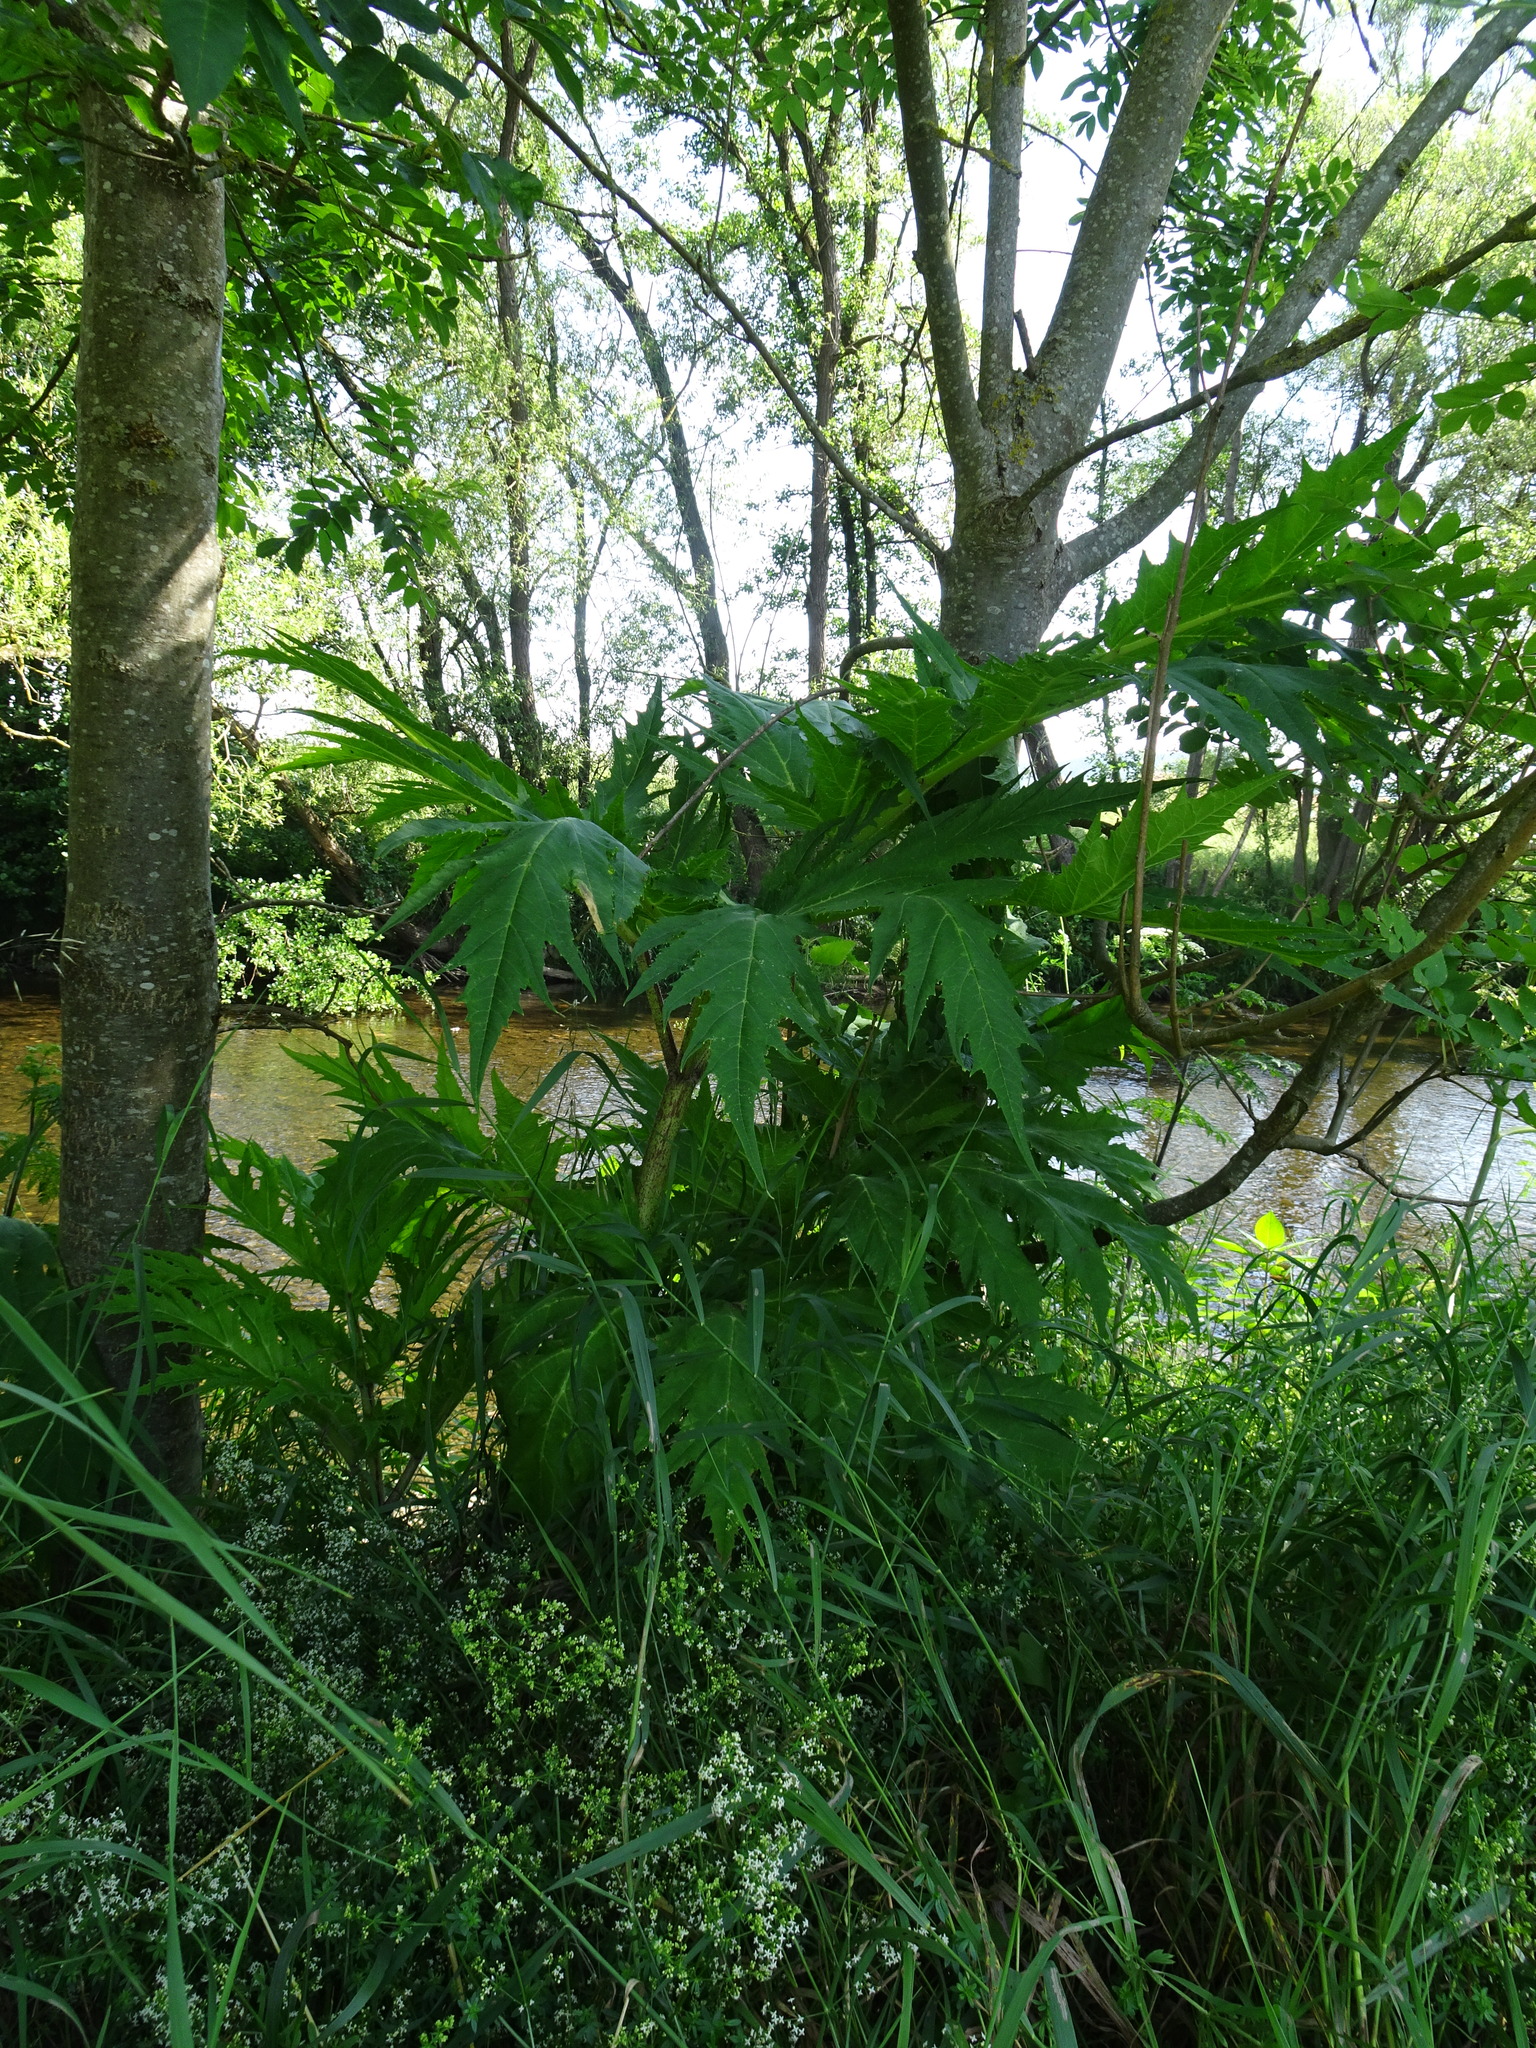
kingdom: Plantae
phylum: Tracheophyta
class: Magnoliopsida
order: Apiales
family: Apiaceae
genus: Heracleum
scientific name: Heracleum mantegazzianum
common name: Giant hogweed
